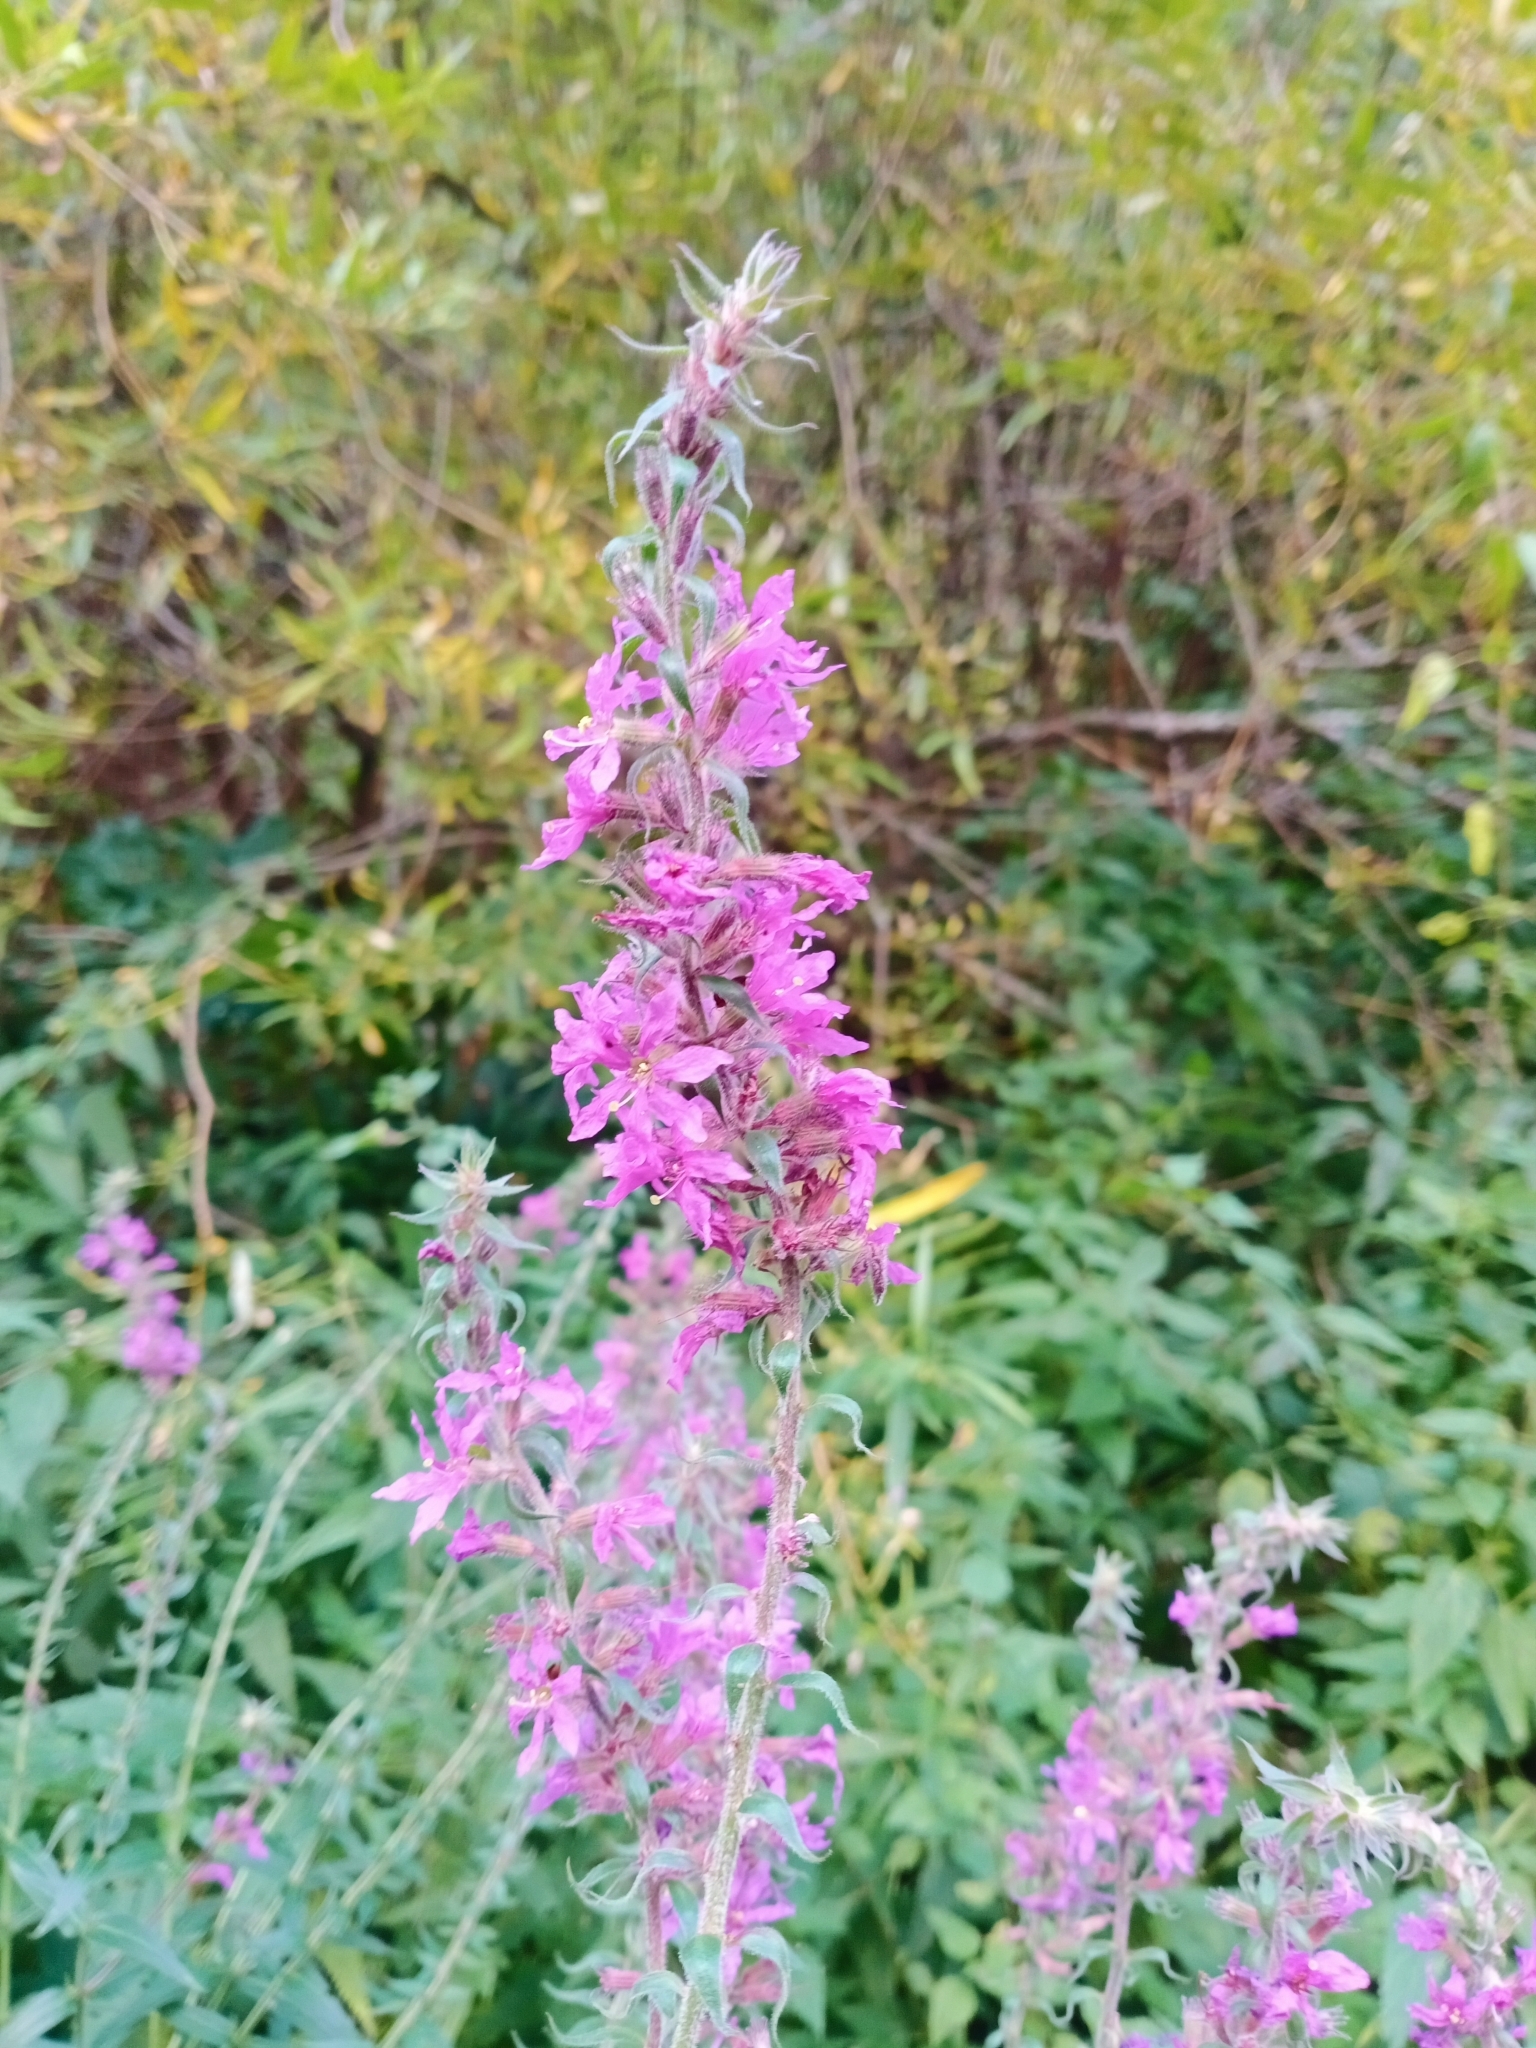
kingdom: Plantae
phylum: Tracheophyta
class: Magnoliopsida
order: Myrtales
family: Lythraceae
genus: Lythrum
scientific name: Lythrum salicaria
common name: Purple loosestrife
